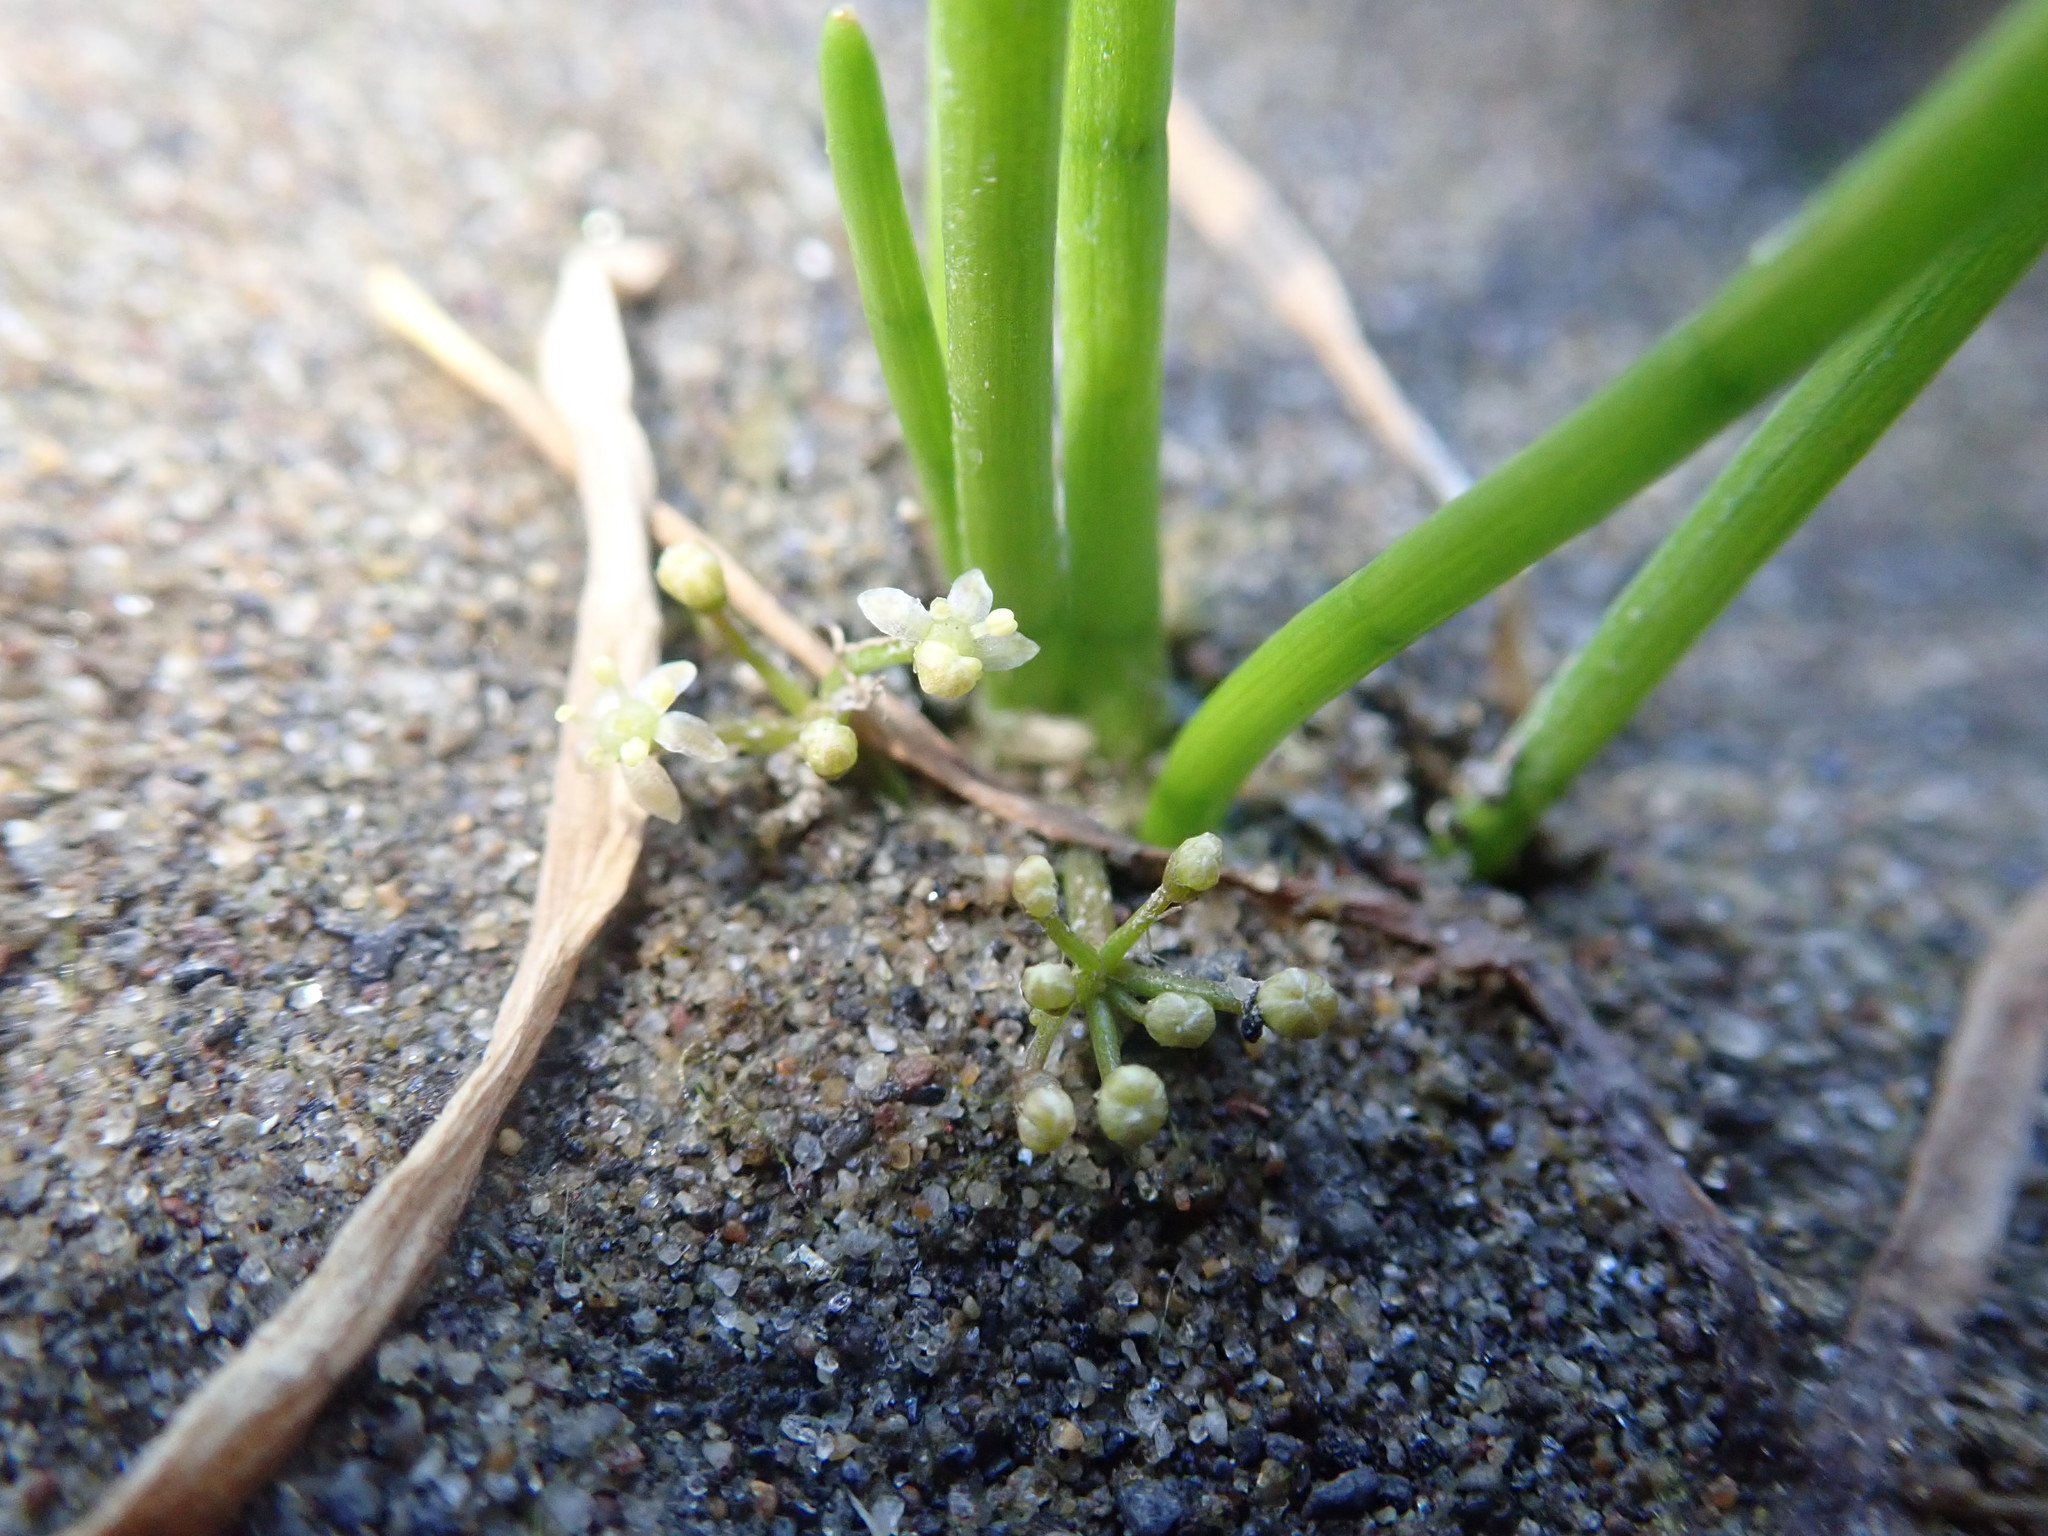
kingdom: Plantae
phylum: Tracheophyta
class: Magnoliopsida
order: Apiales
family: Apiaceae
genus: Lilaeopsis
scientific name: Lilaeopsis occidentalis
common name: Western grasswort
